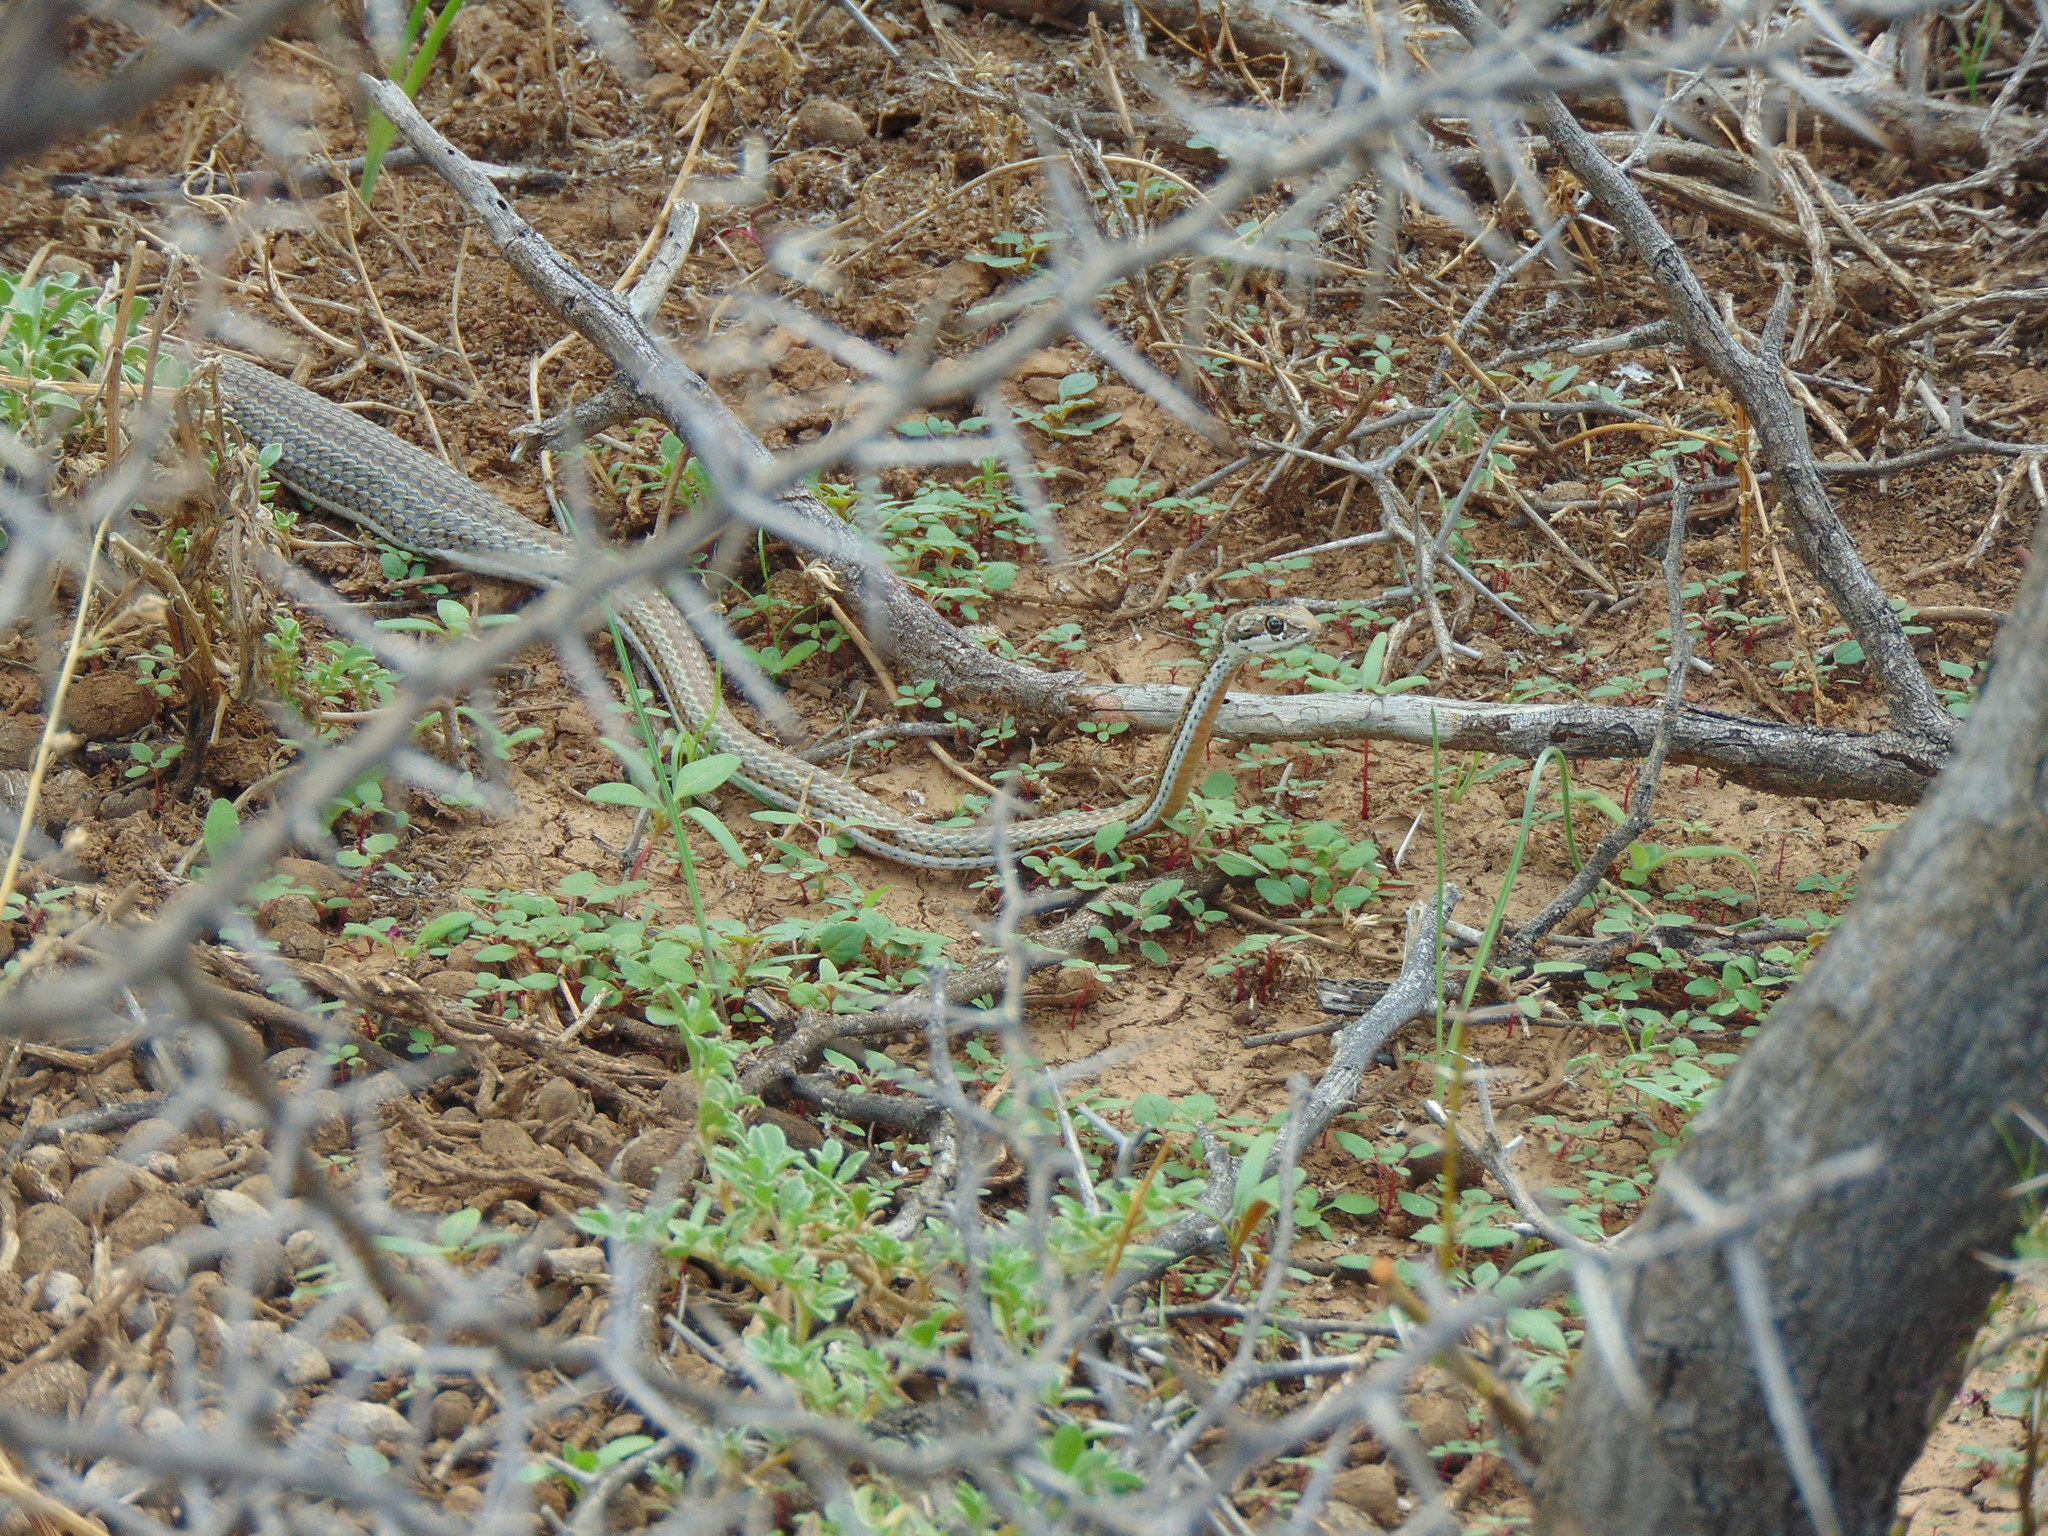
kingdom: Animalia
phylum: Chordata
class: Squamata
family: Psammophiidae
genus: Psammophis
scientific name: Psammophis notostictus
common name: Karoo sand snake
